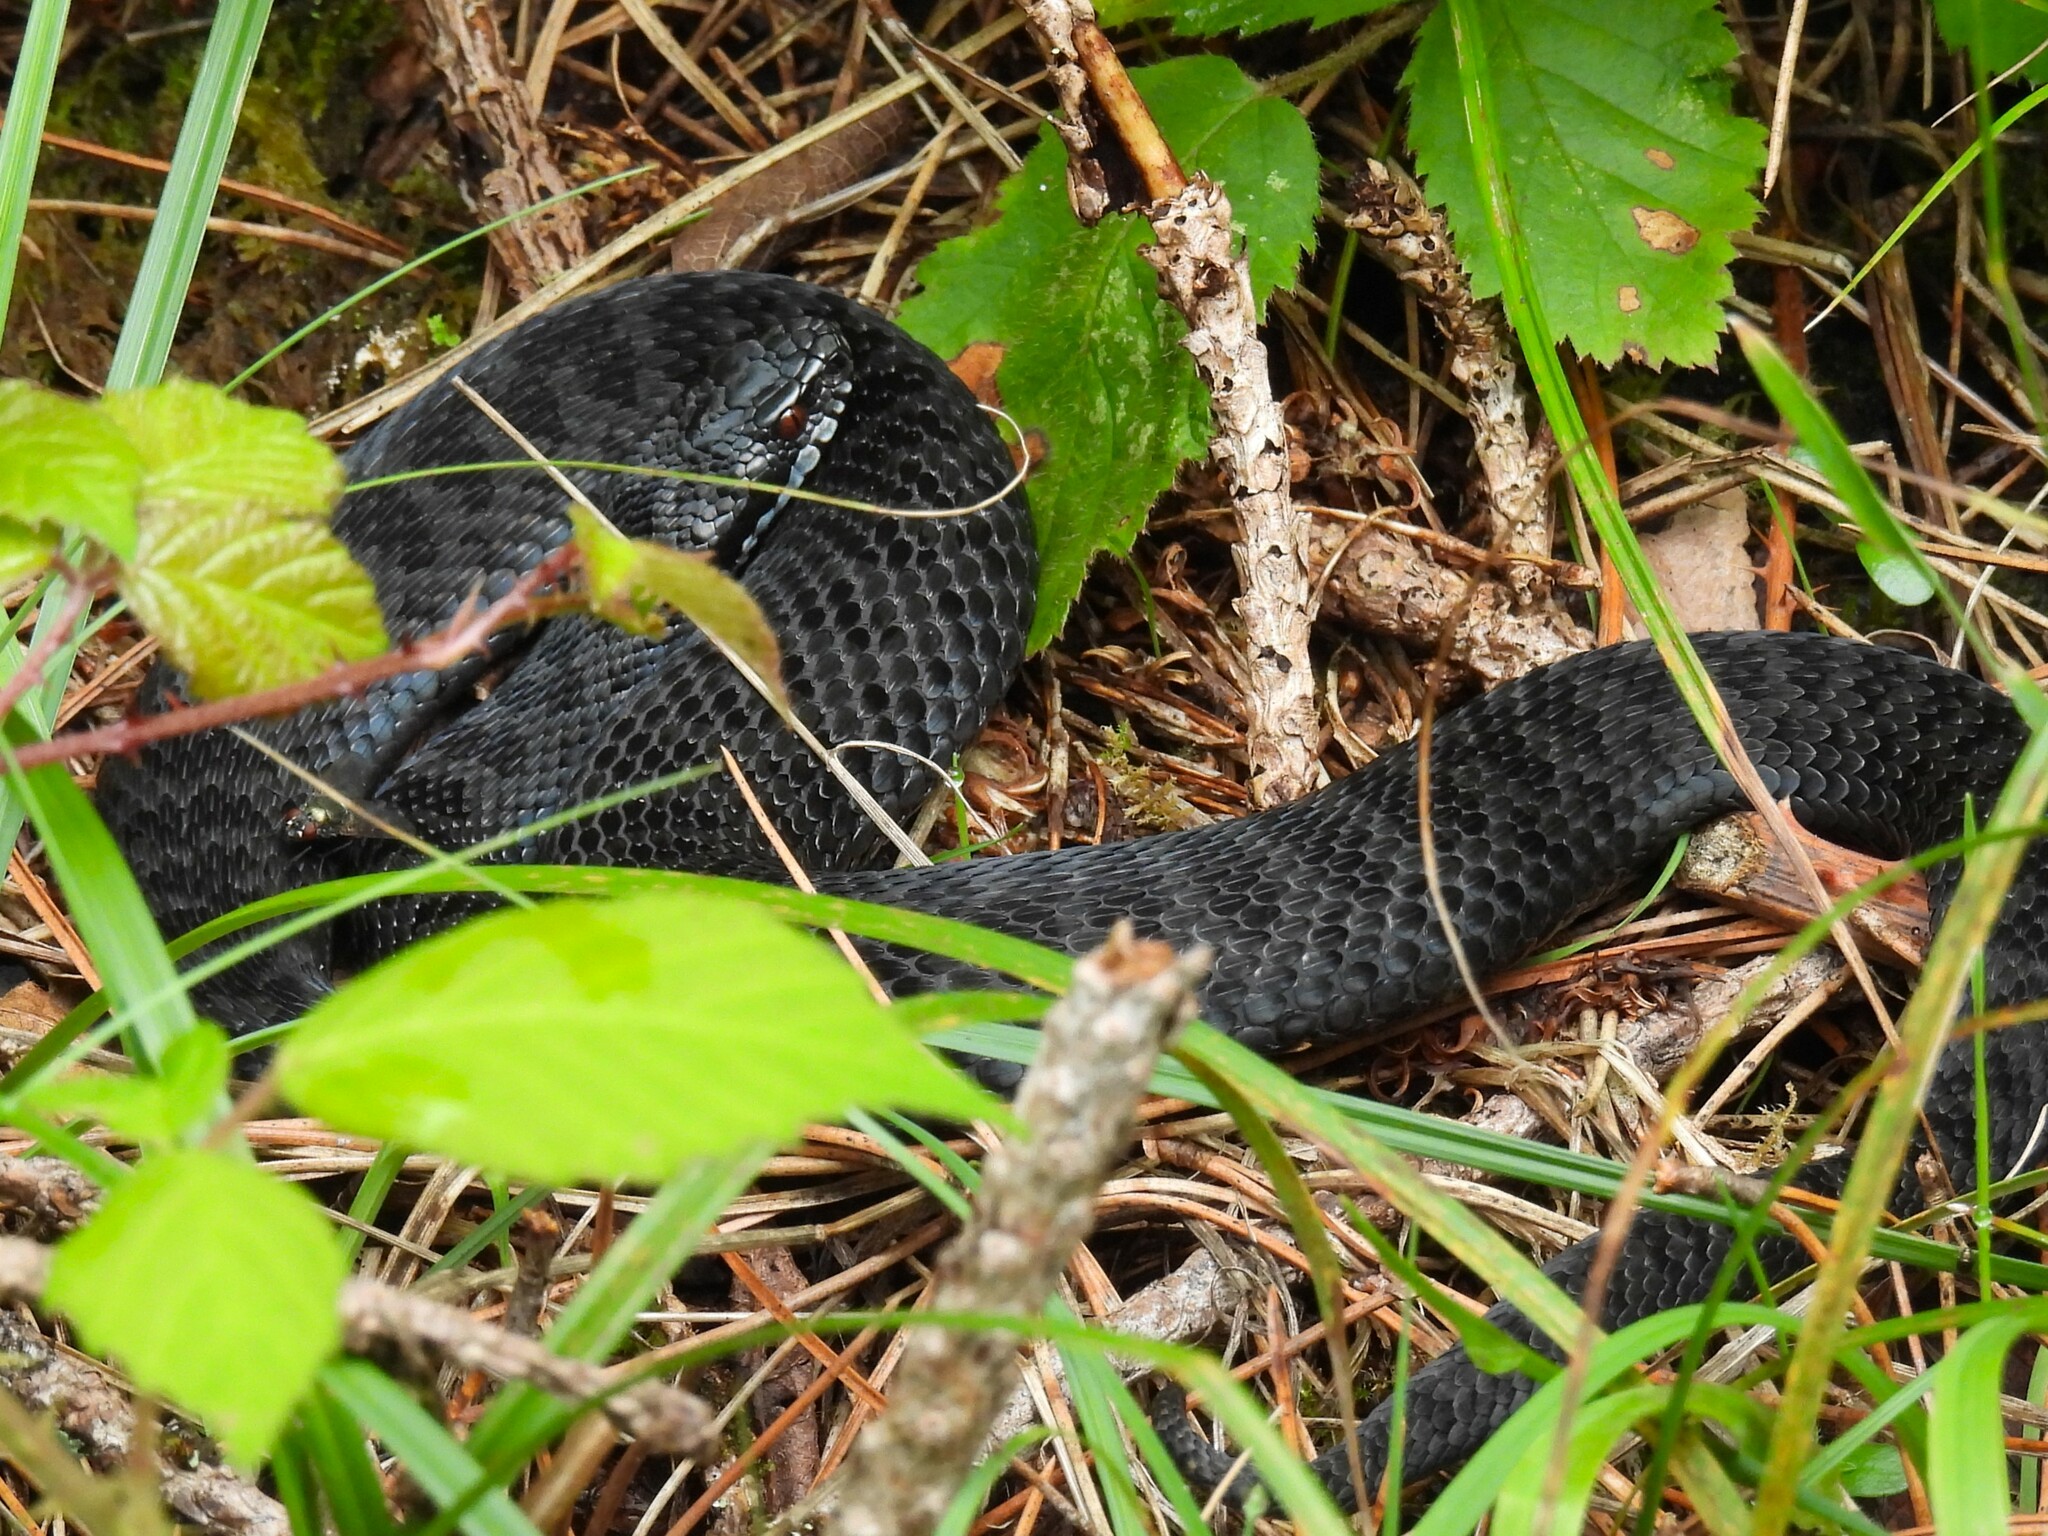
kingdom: Animalia
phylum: Chordata
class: Squamata
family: Viperidae
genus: Vipera
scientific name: Vipera berus
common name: Adder
